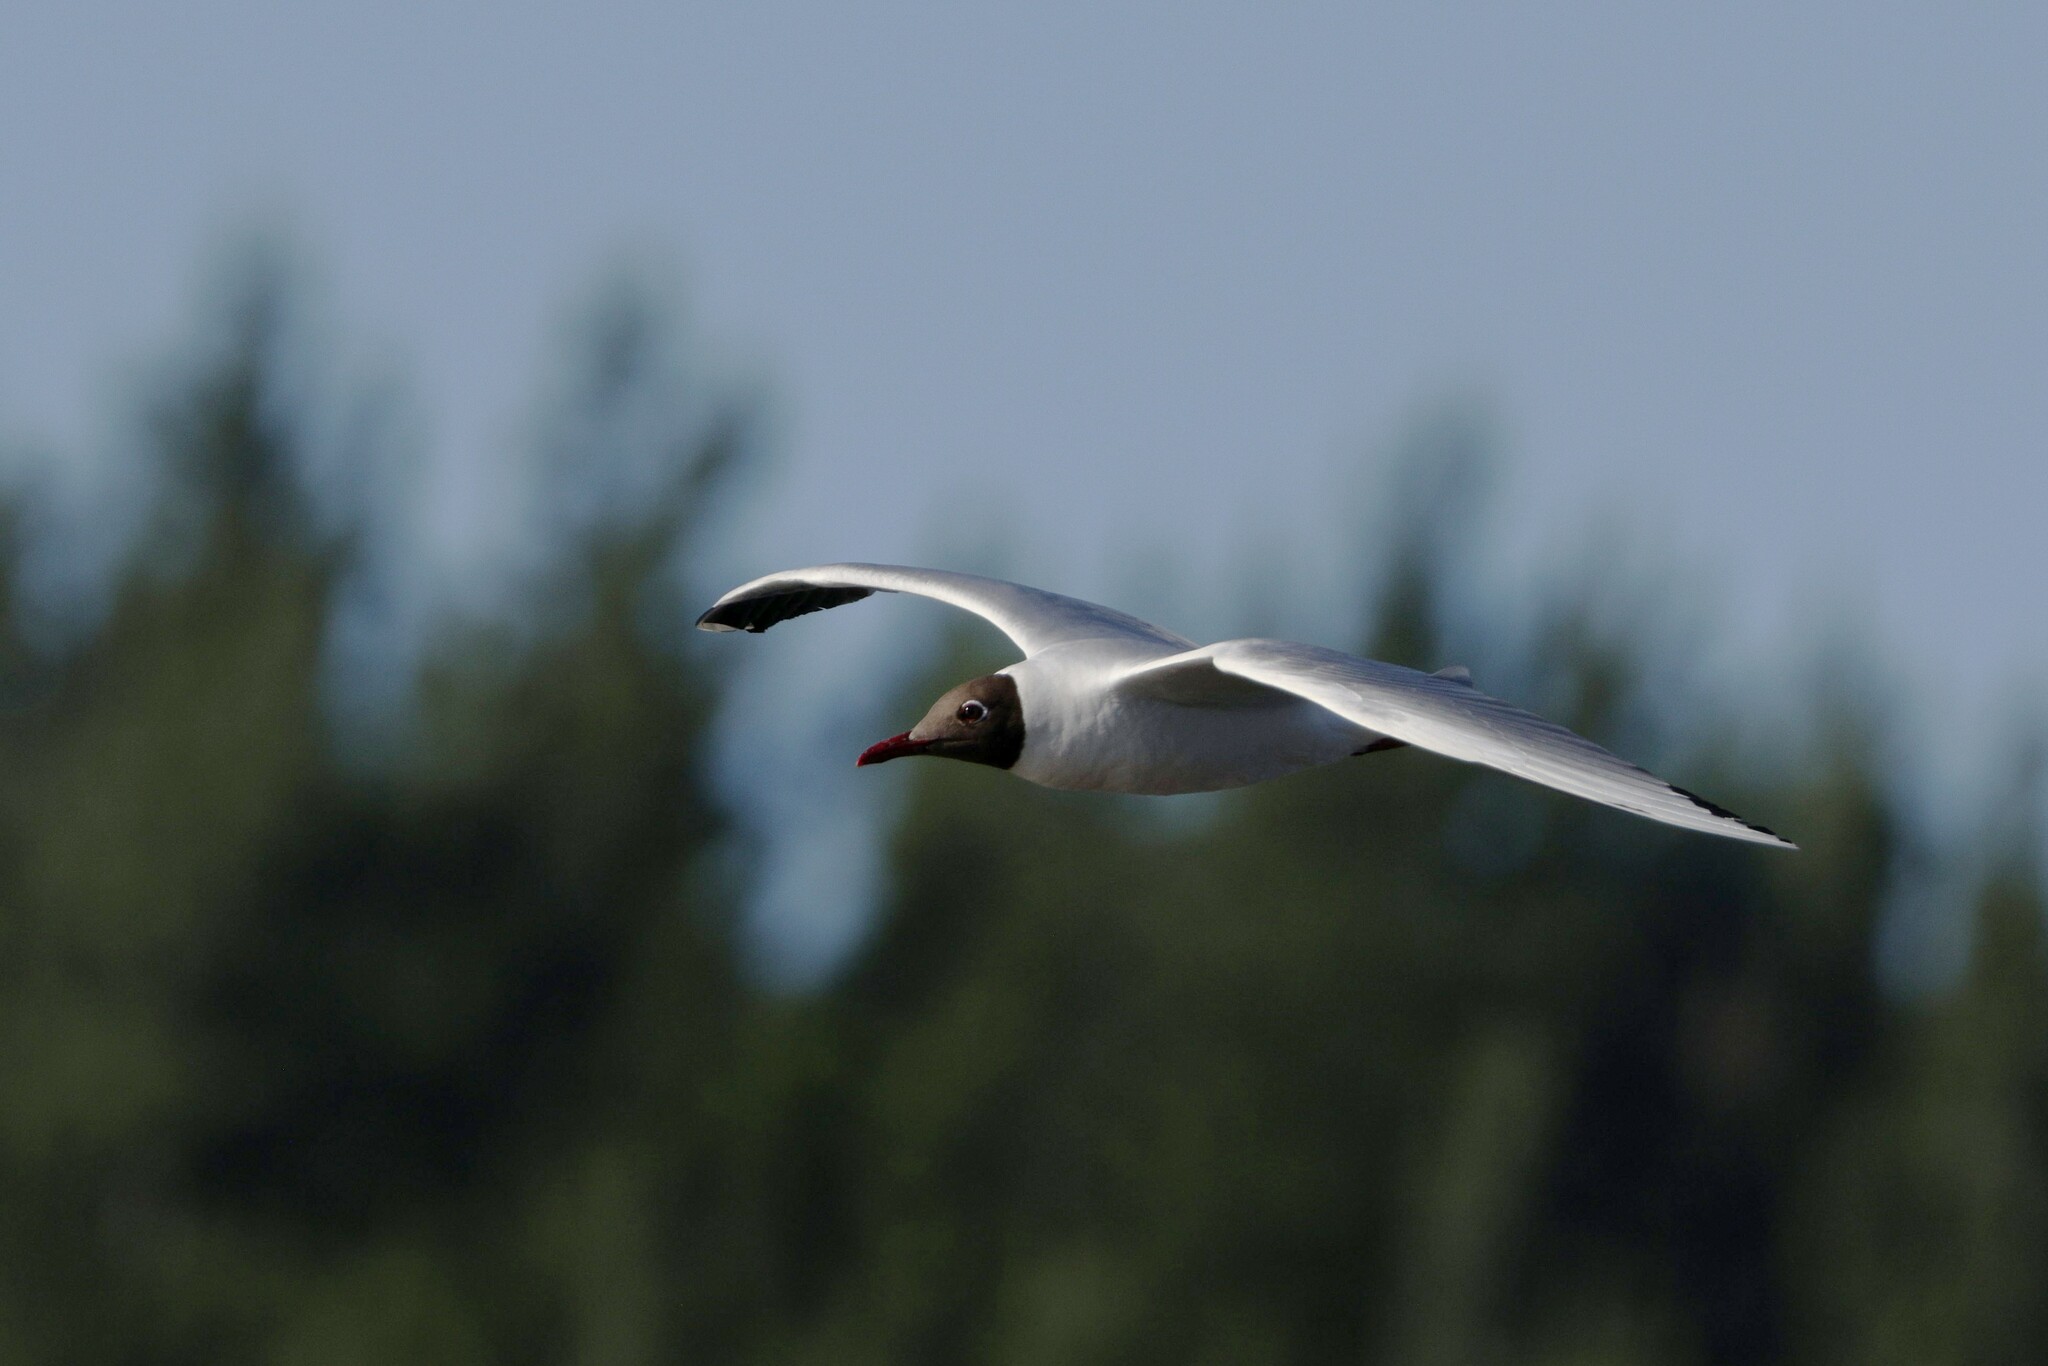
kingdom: Animalia
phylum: Chordata
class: Aves
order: Charadriiformes
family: Laridae
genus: Chroicocephalus
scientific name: Chroicocephalus maculipennis
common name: Brown-hooded gull
